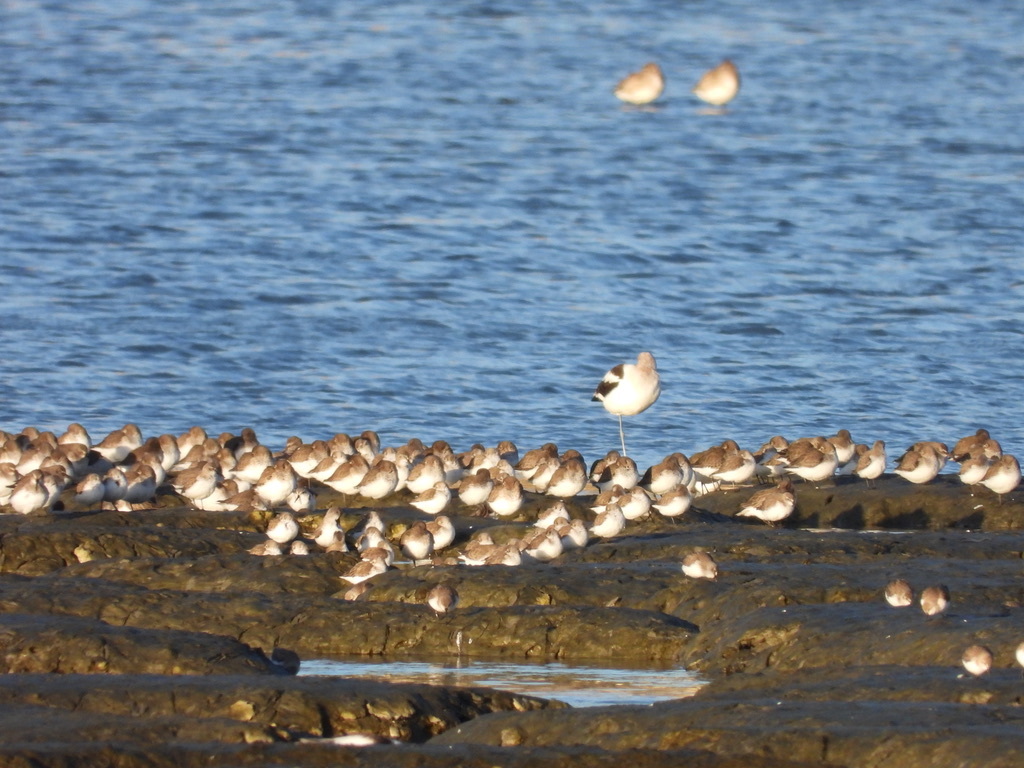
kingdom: Animalia
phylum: Chordata
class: Aves
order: Charadriiformes
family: Scolopacidae
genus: Calidris
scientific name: Calidris alpina
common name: Dunlin
